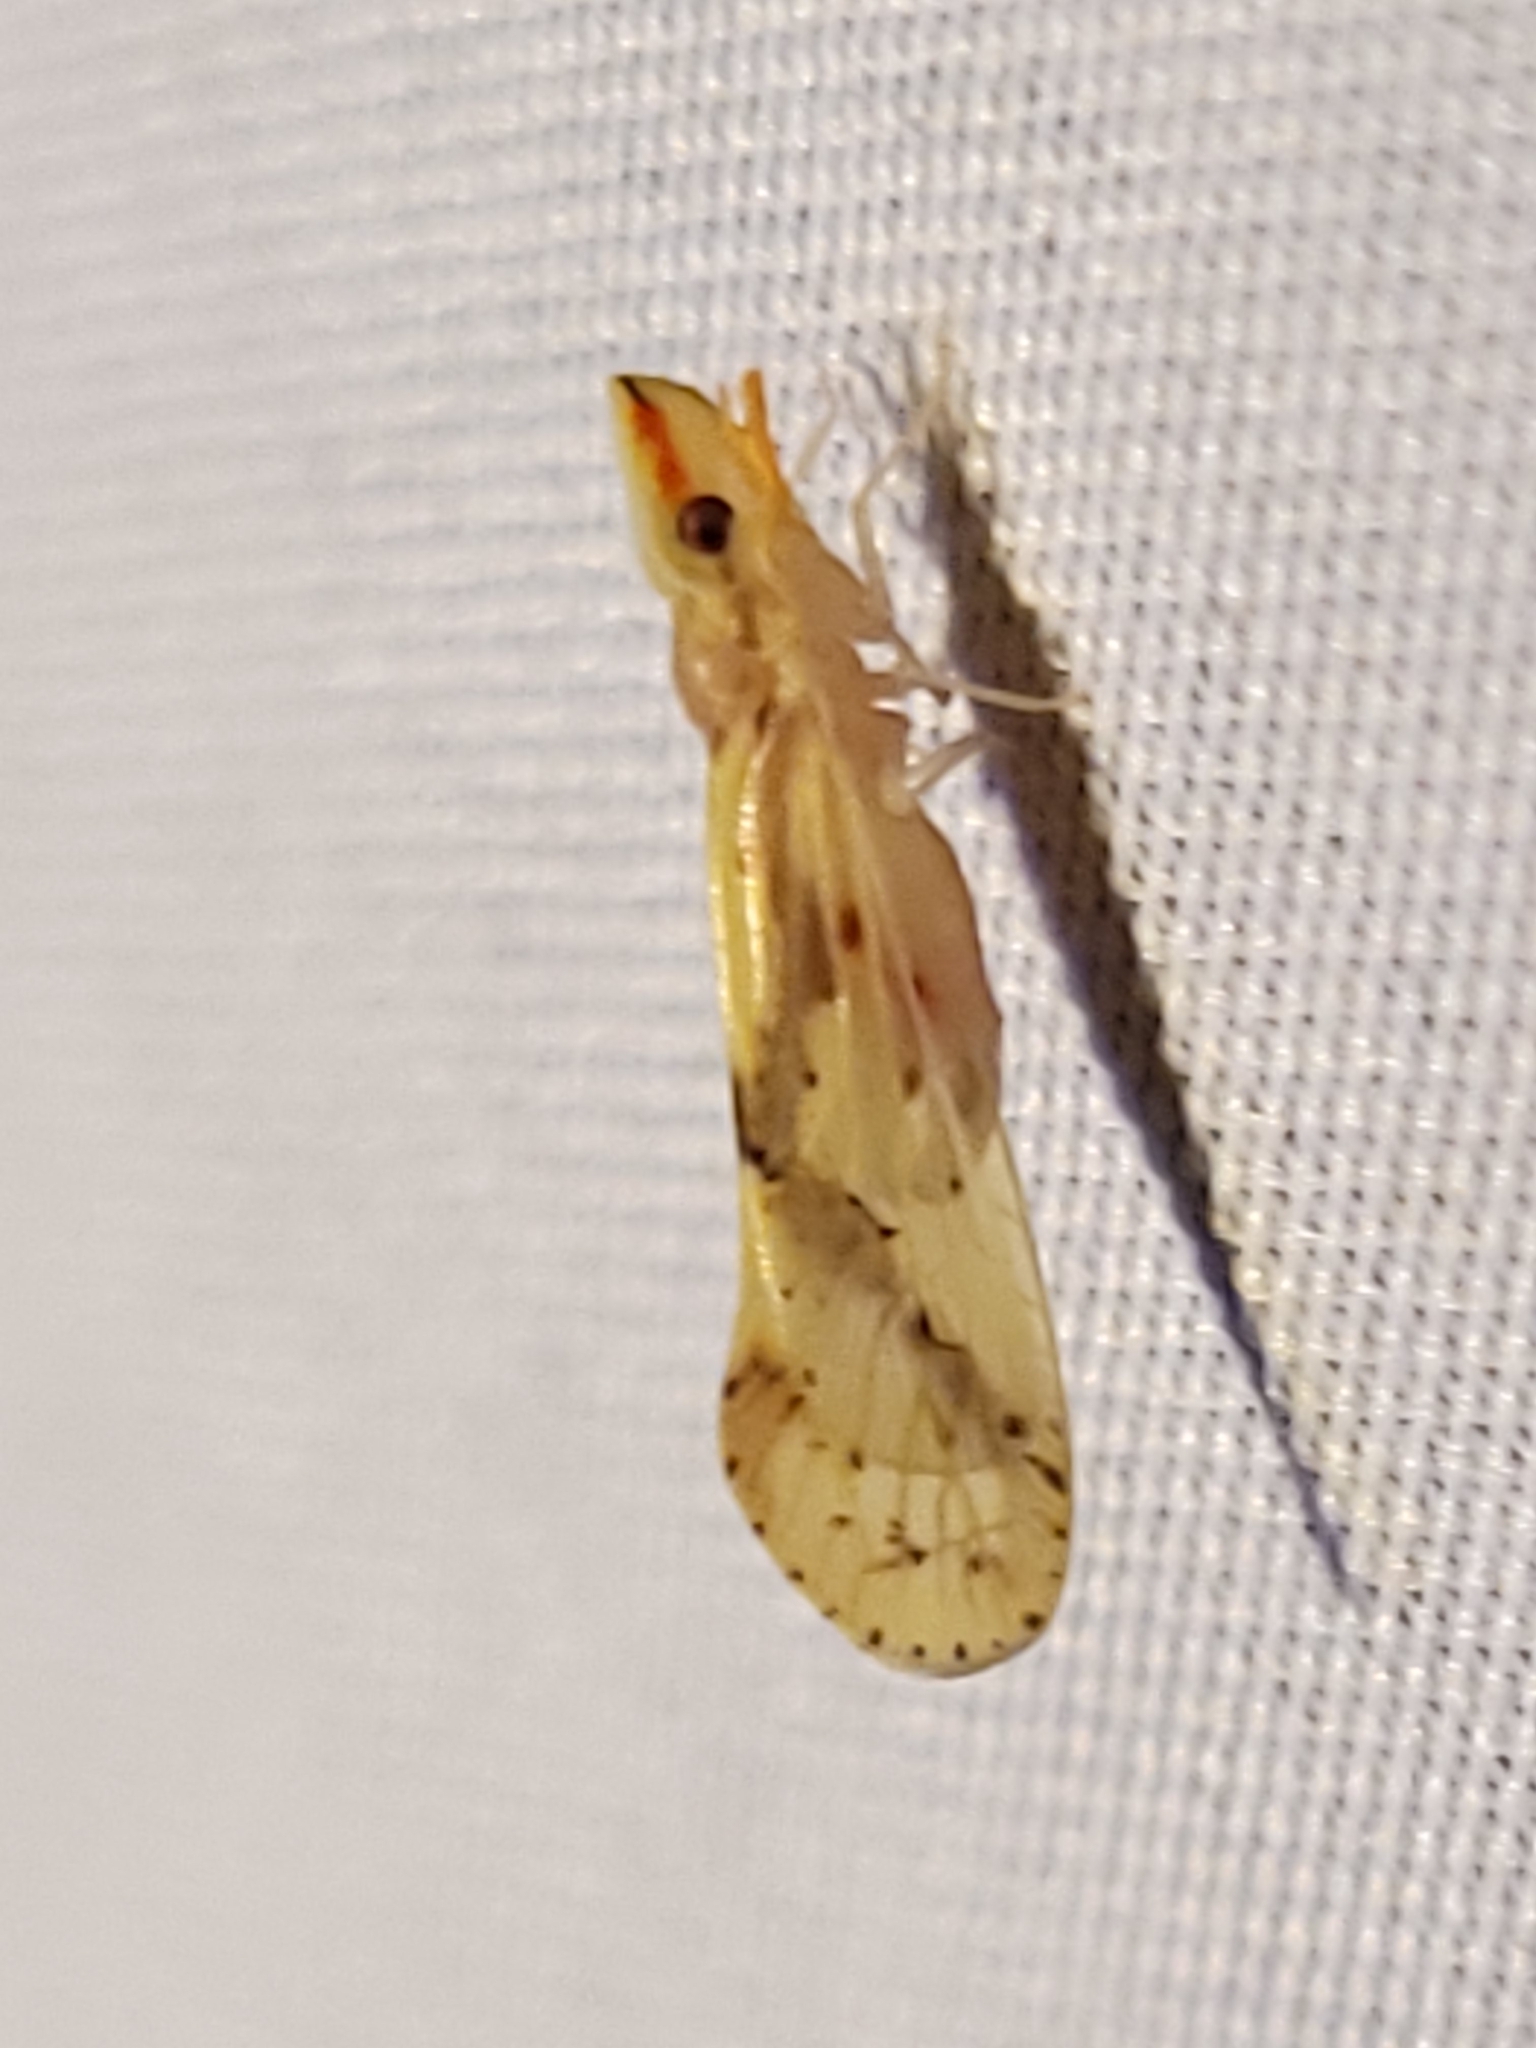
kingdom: Animalia
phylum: Arthropoda
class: Insecta
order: Hemiptera
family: Derbidae
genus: Otiocerus
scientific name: Otiocerus wolfii
